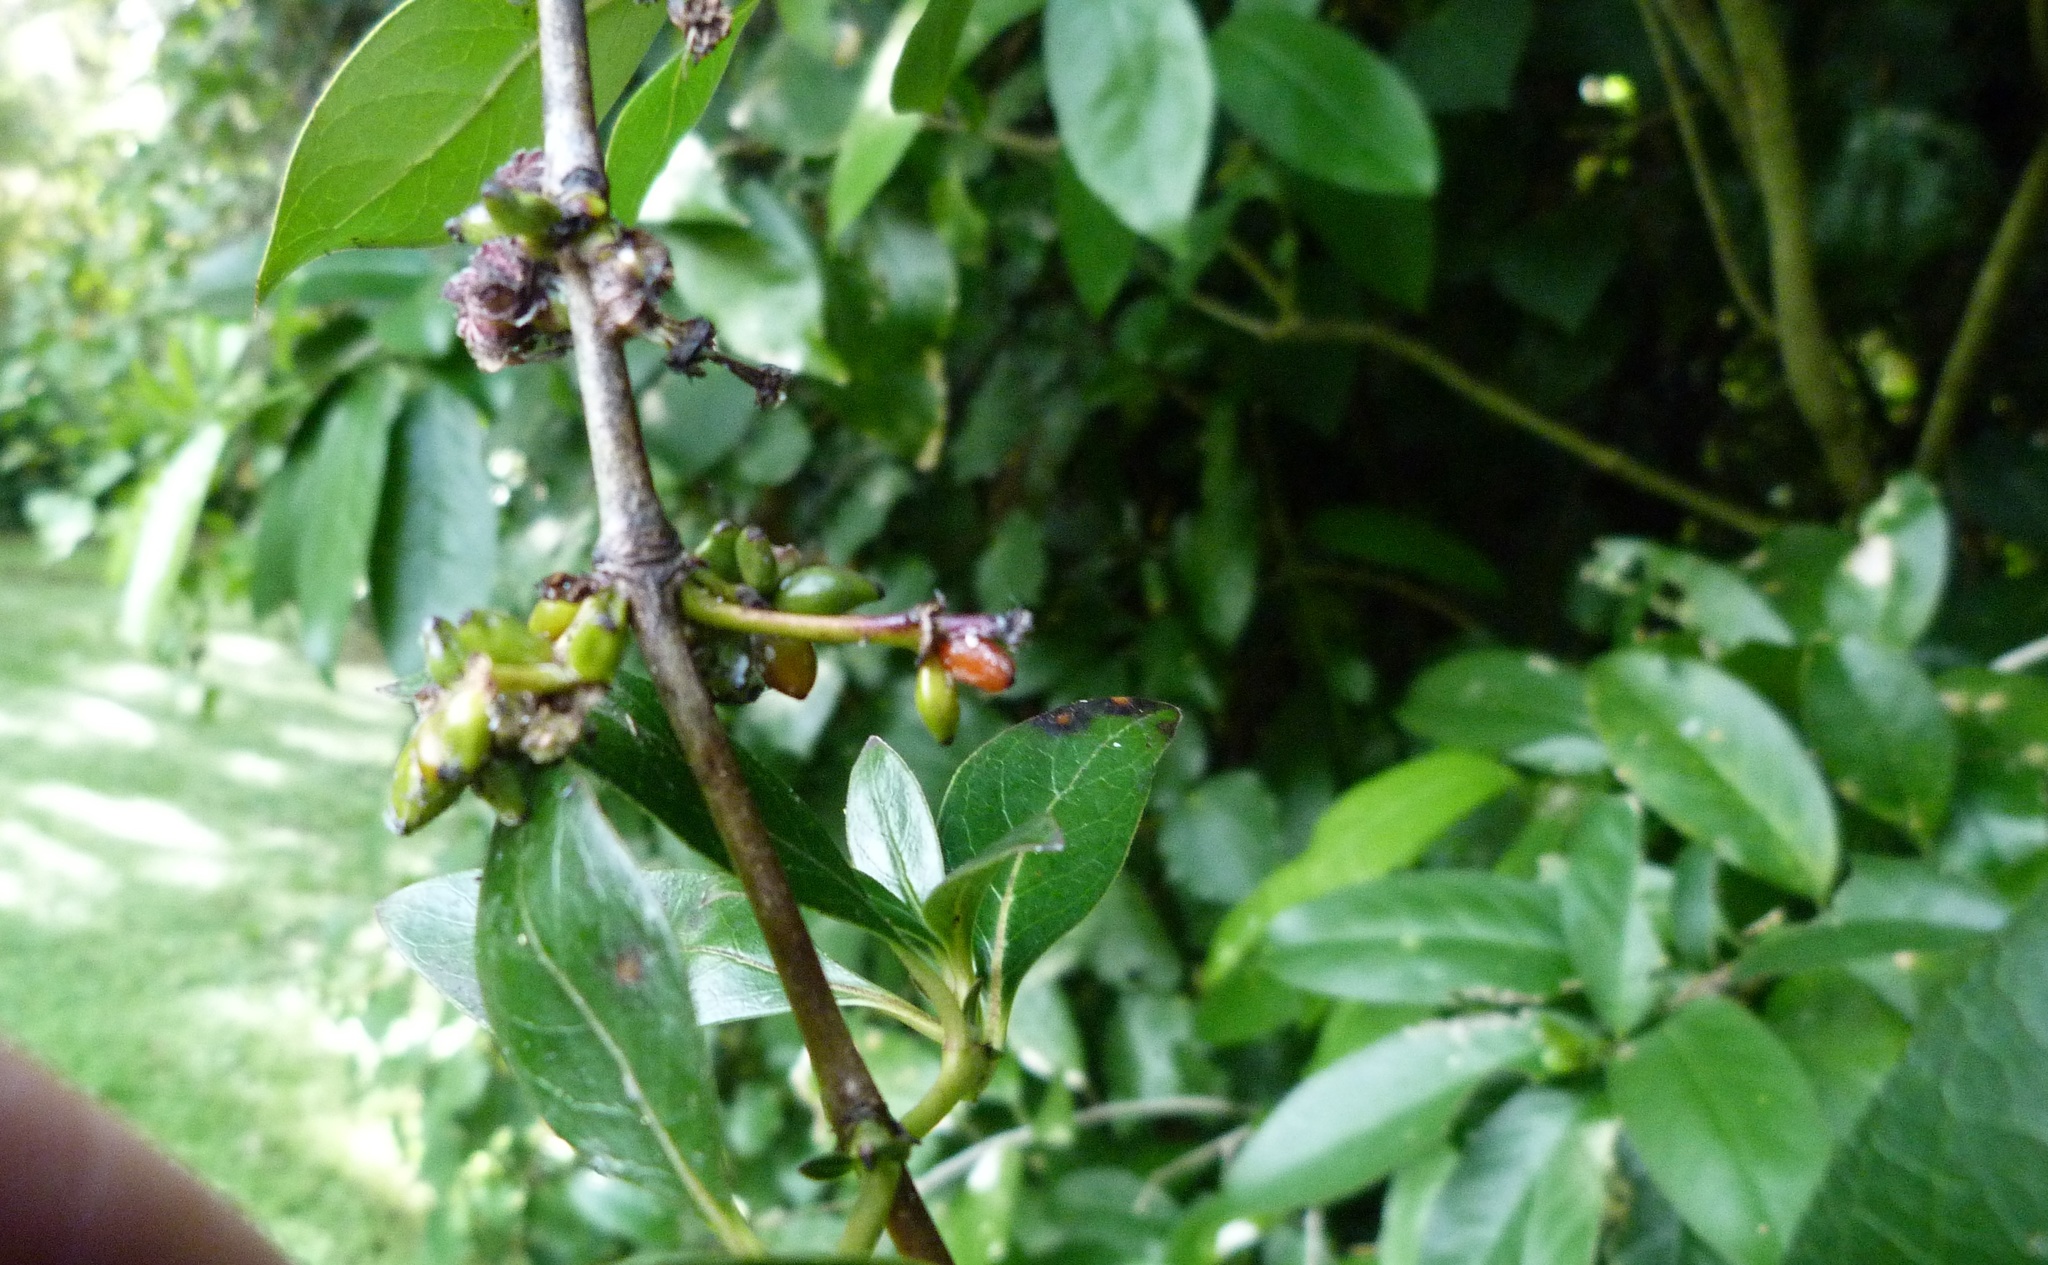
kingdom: Plantae
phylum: Tracheophyta
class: Magnoliopsida
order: Gentianales
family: Rubiaceae
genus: Coprosma
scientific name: Coprosma robusta
